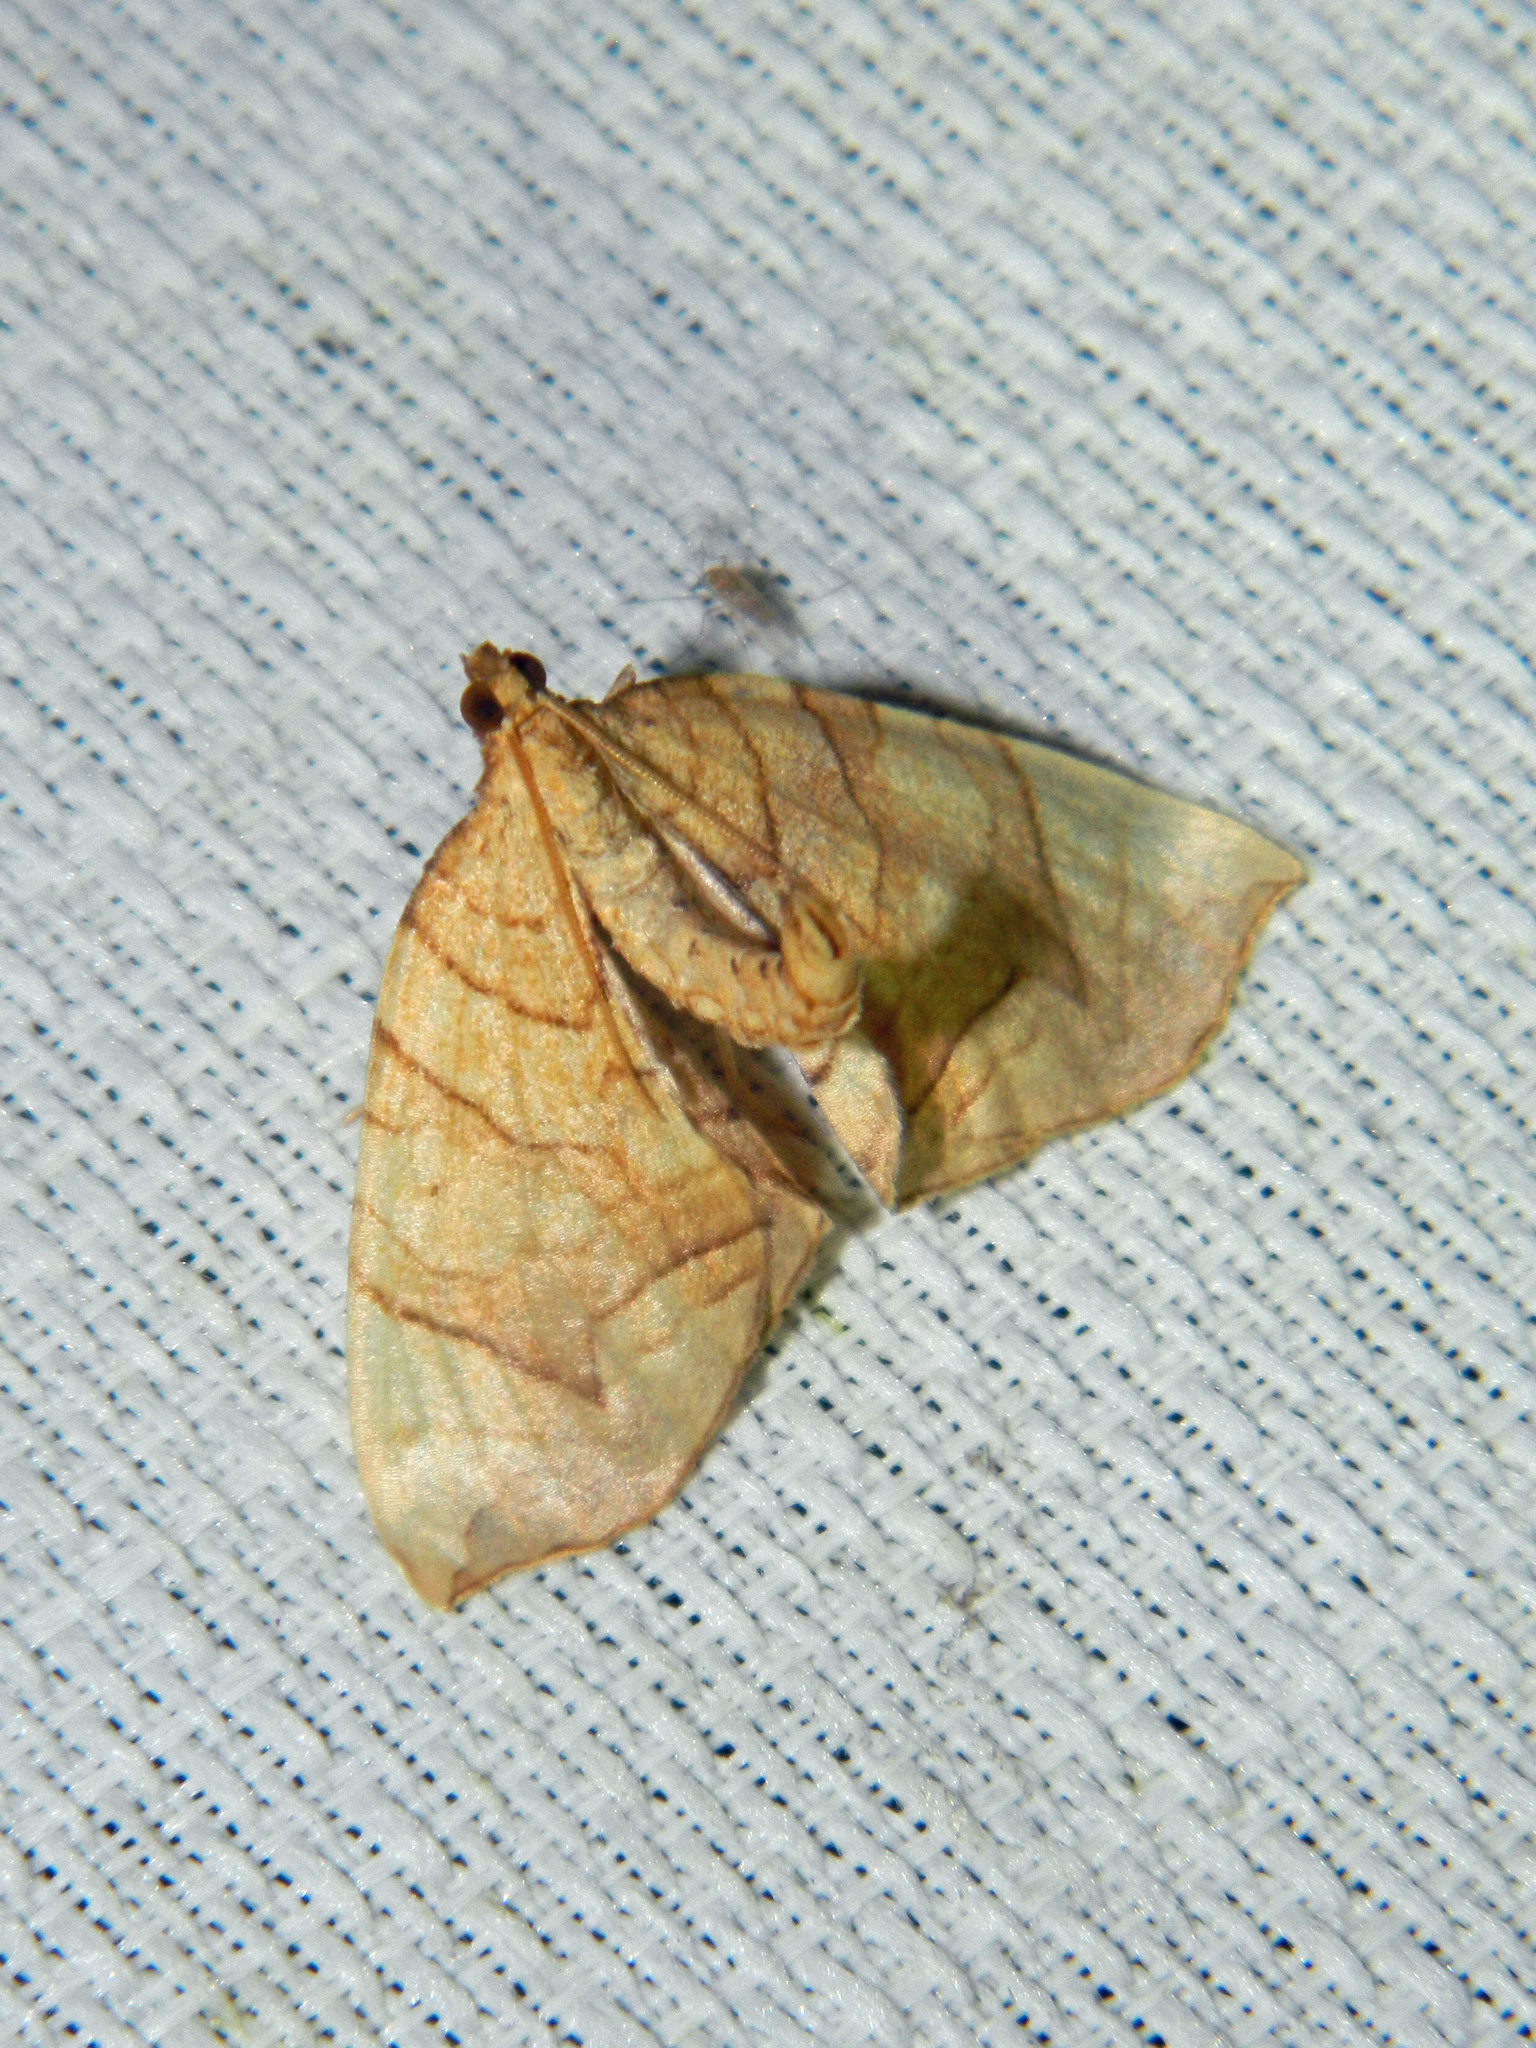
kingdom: Animalia
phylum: Arthropoda
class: Insecta
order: Lepidoptera
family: Geometridae
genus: Eulithis
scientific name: Eulithis
